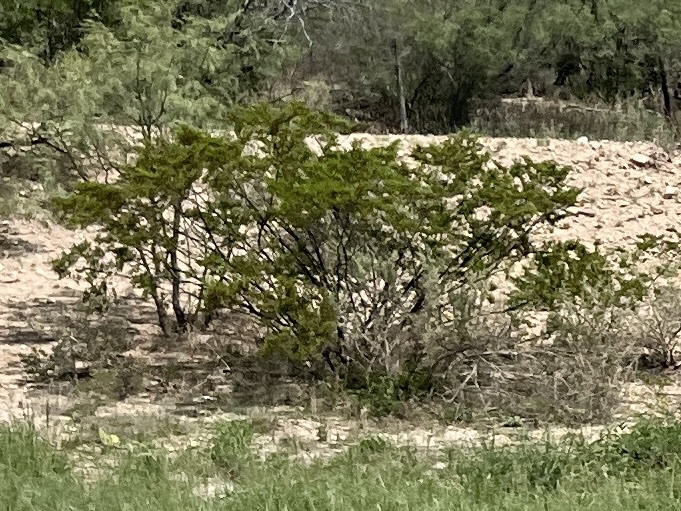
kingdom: Plantae
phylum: Tracheophyta
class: Magnoliopsida
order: Zygophyllales
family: Zygophyllaceae
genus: Larrea
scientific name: Larrea tridentata
